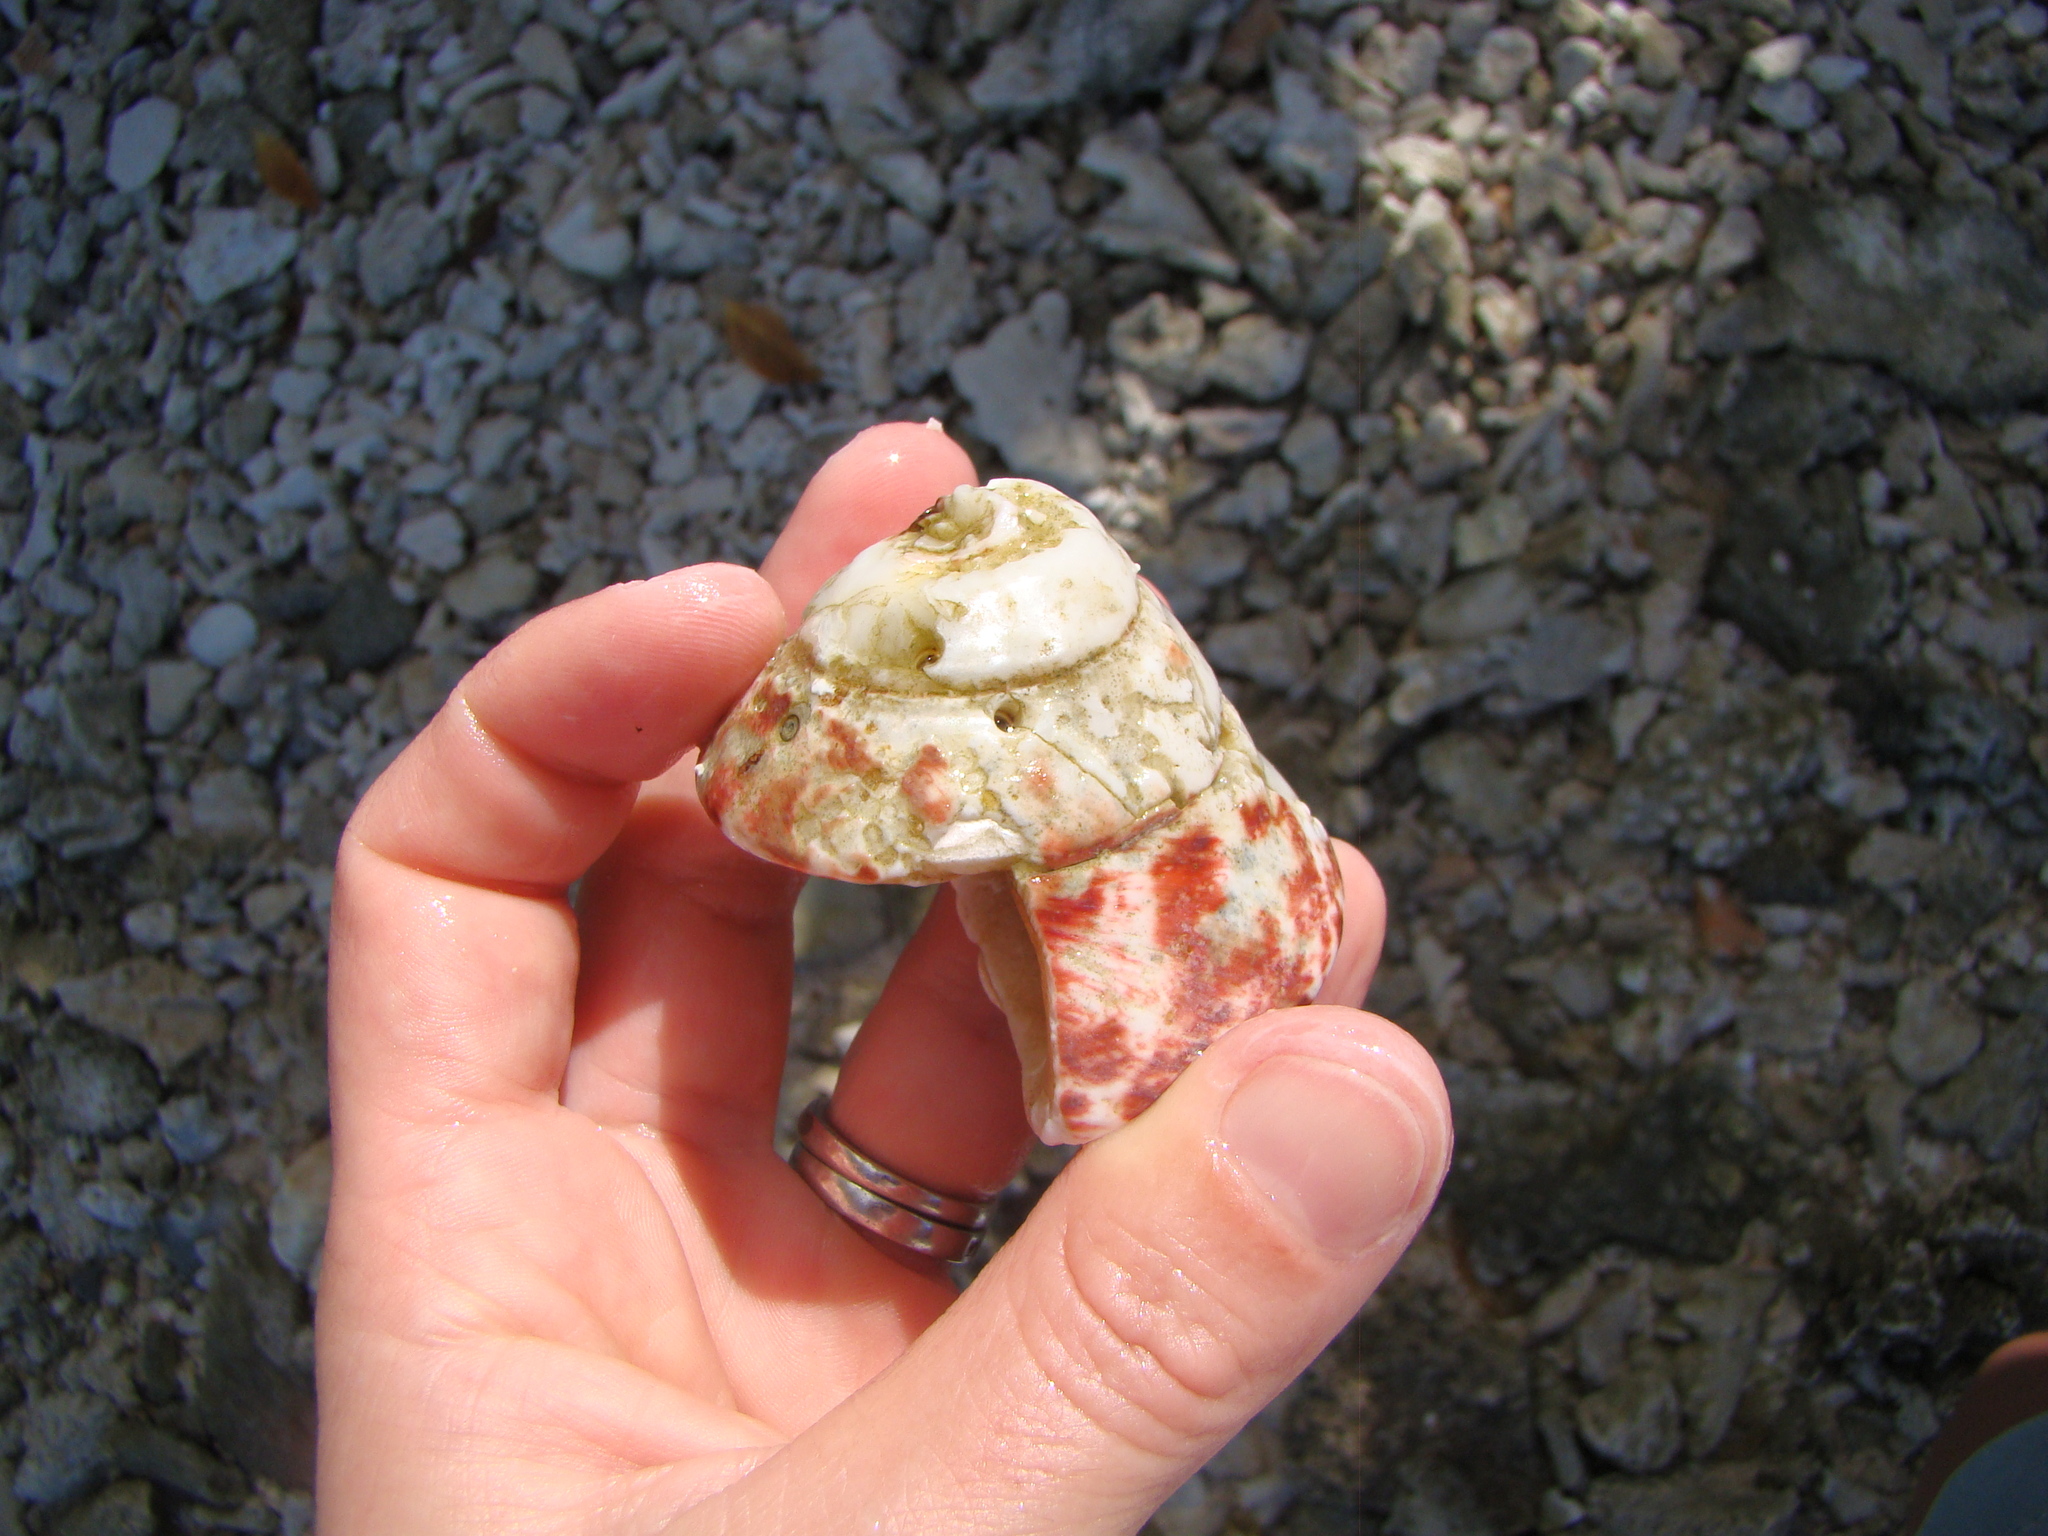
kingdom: Animalia
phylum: Mollusca
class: Gastropoda
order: Trochida
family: Tegulidae
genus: Rochia
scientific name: Rochia nilotica
